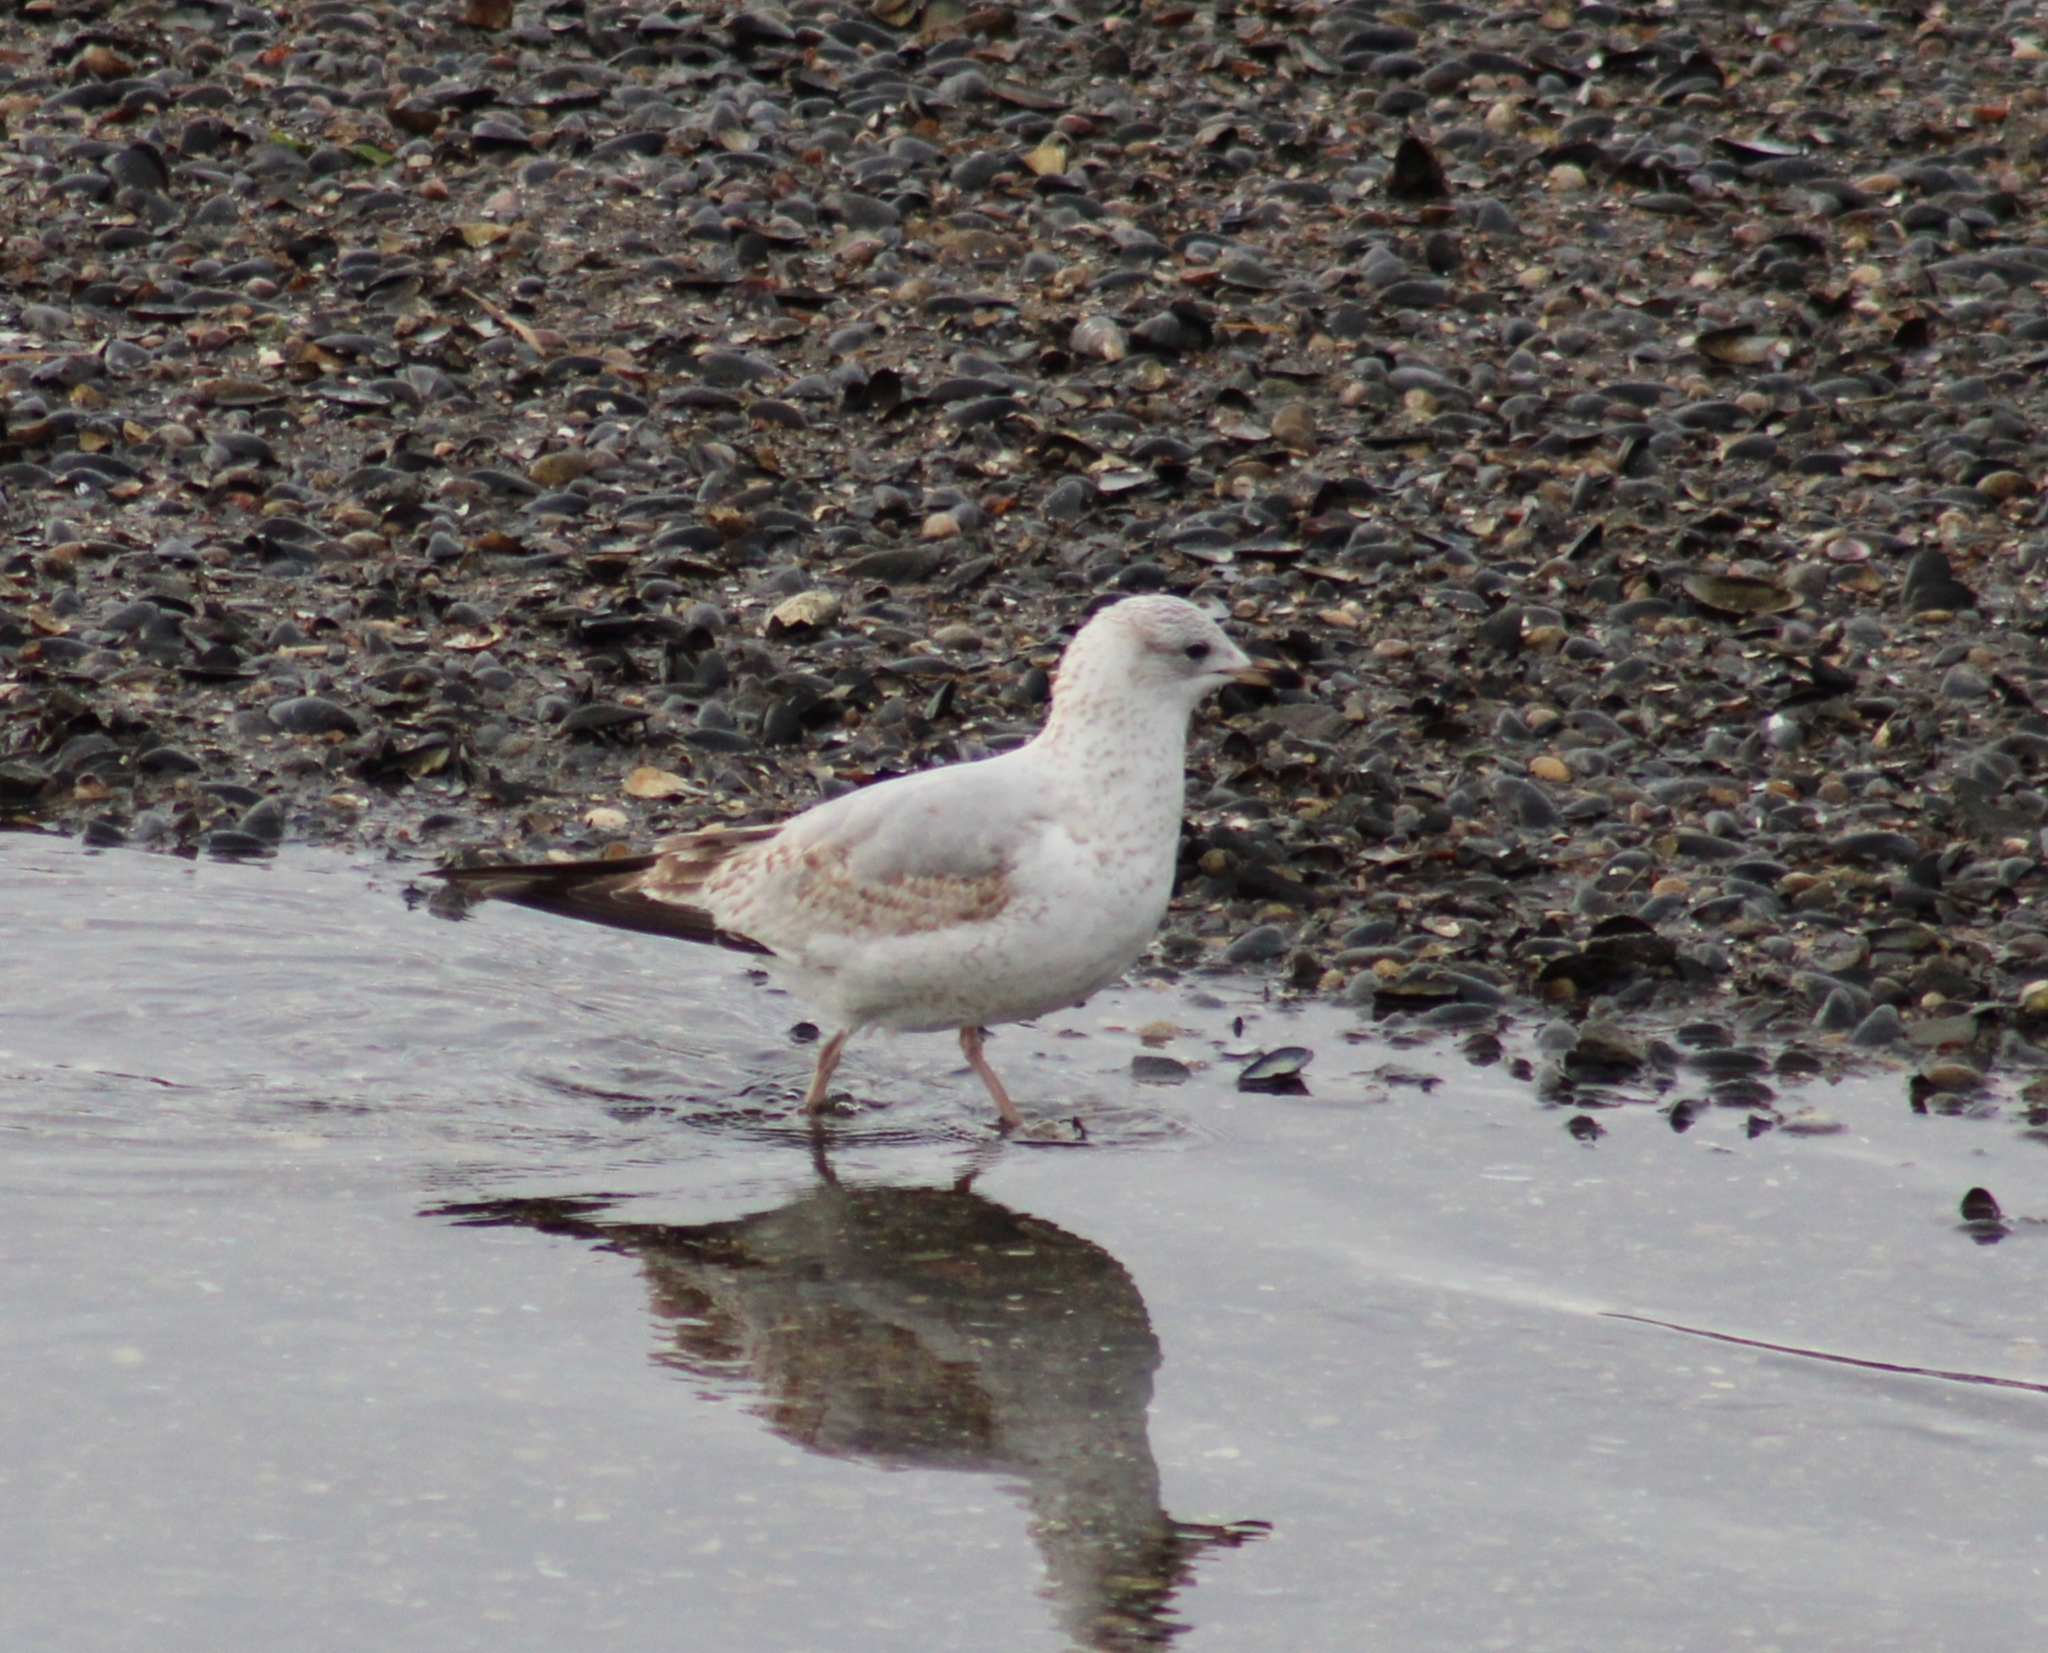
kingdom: Animalia
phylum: Chordata
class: Aves
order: Charadriiformes
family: Laridae
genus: Larus
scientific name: Larus delawarensis
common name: Ring-billed gull
